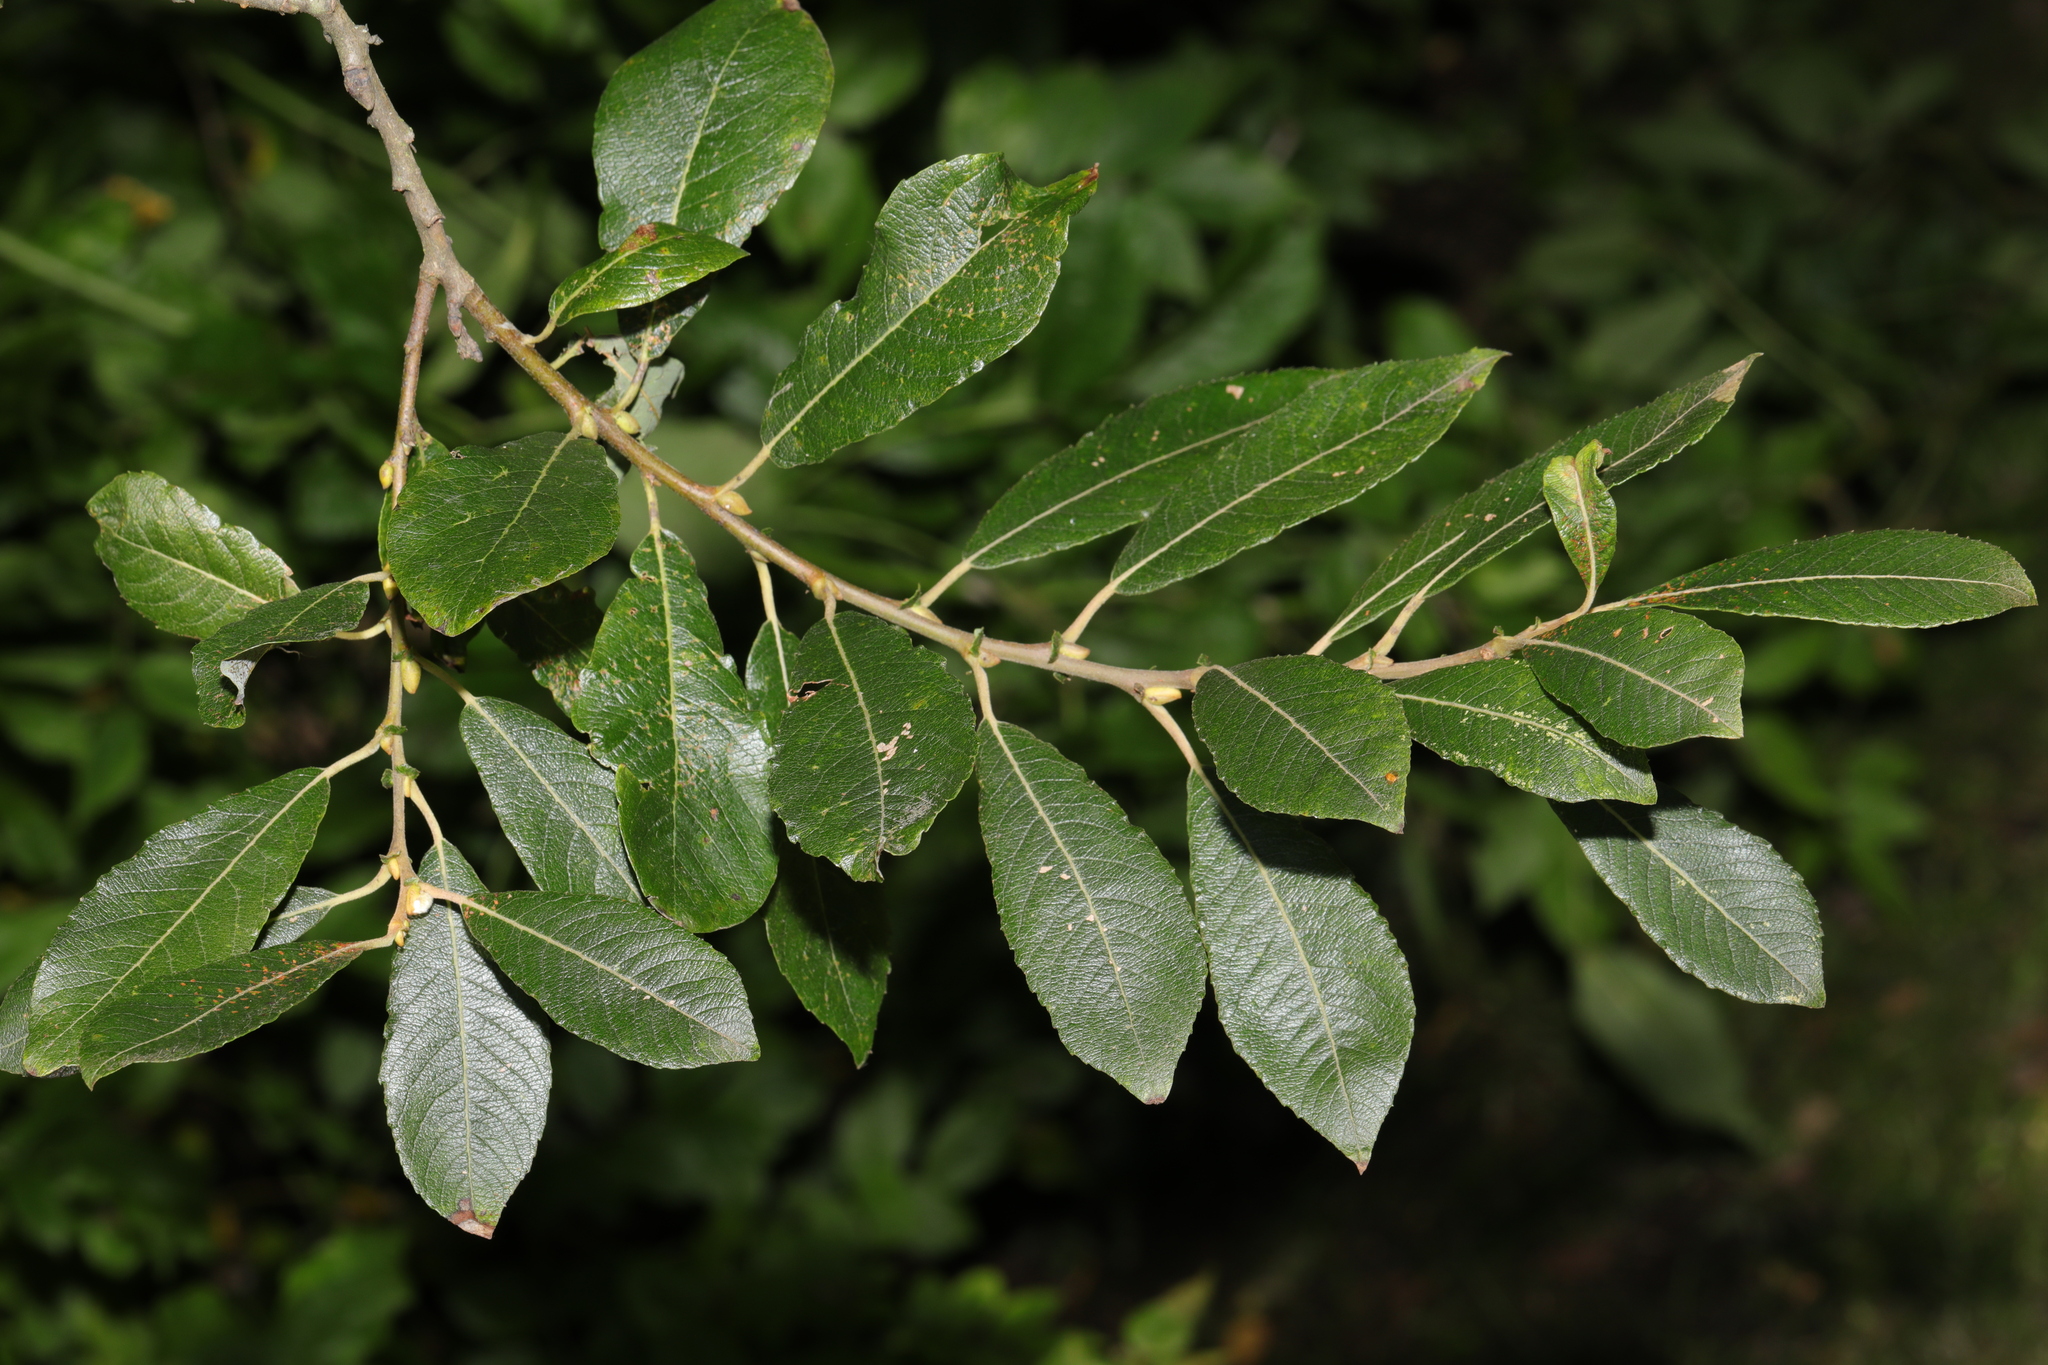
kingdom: Plantae
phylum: Tracheophyta
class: Magnoliopsida
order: Malpighiales
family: Salicaceae
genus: Salix
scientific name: Salix atrocinerea
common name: Rusty willow
